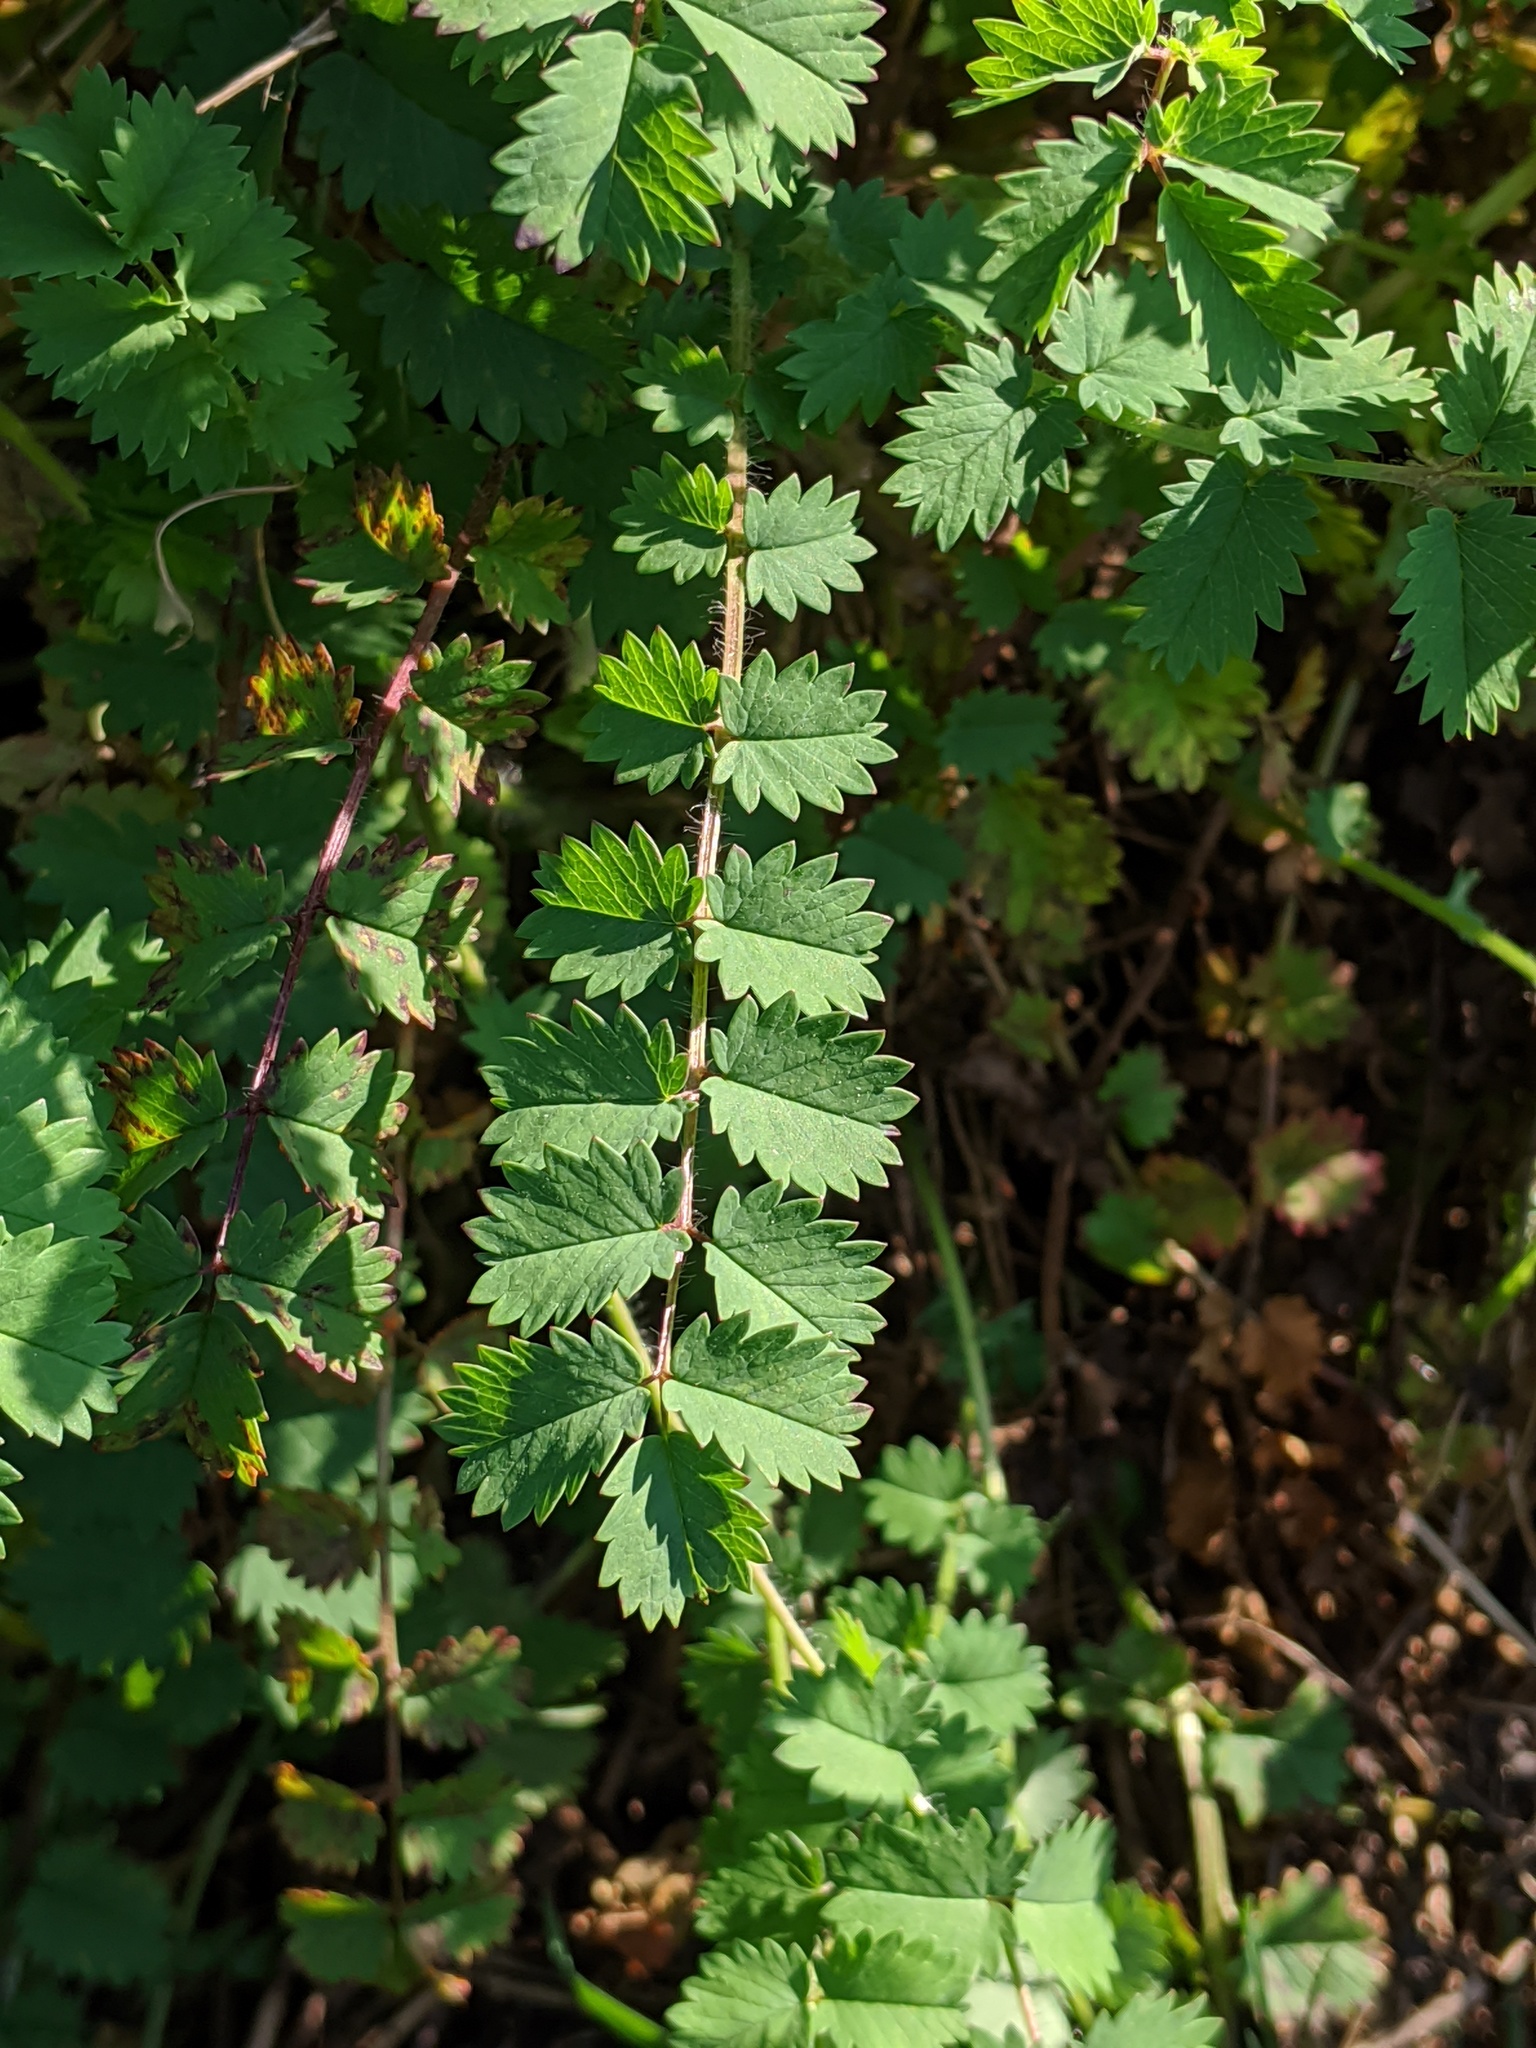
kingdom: Plantae
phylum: Tracheophyta
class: Magnoliopsida
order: Rosales
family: Rosaceae
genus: Poterium
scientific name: Poterium sanguisorba
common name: Salad burnet
